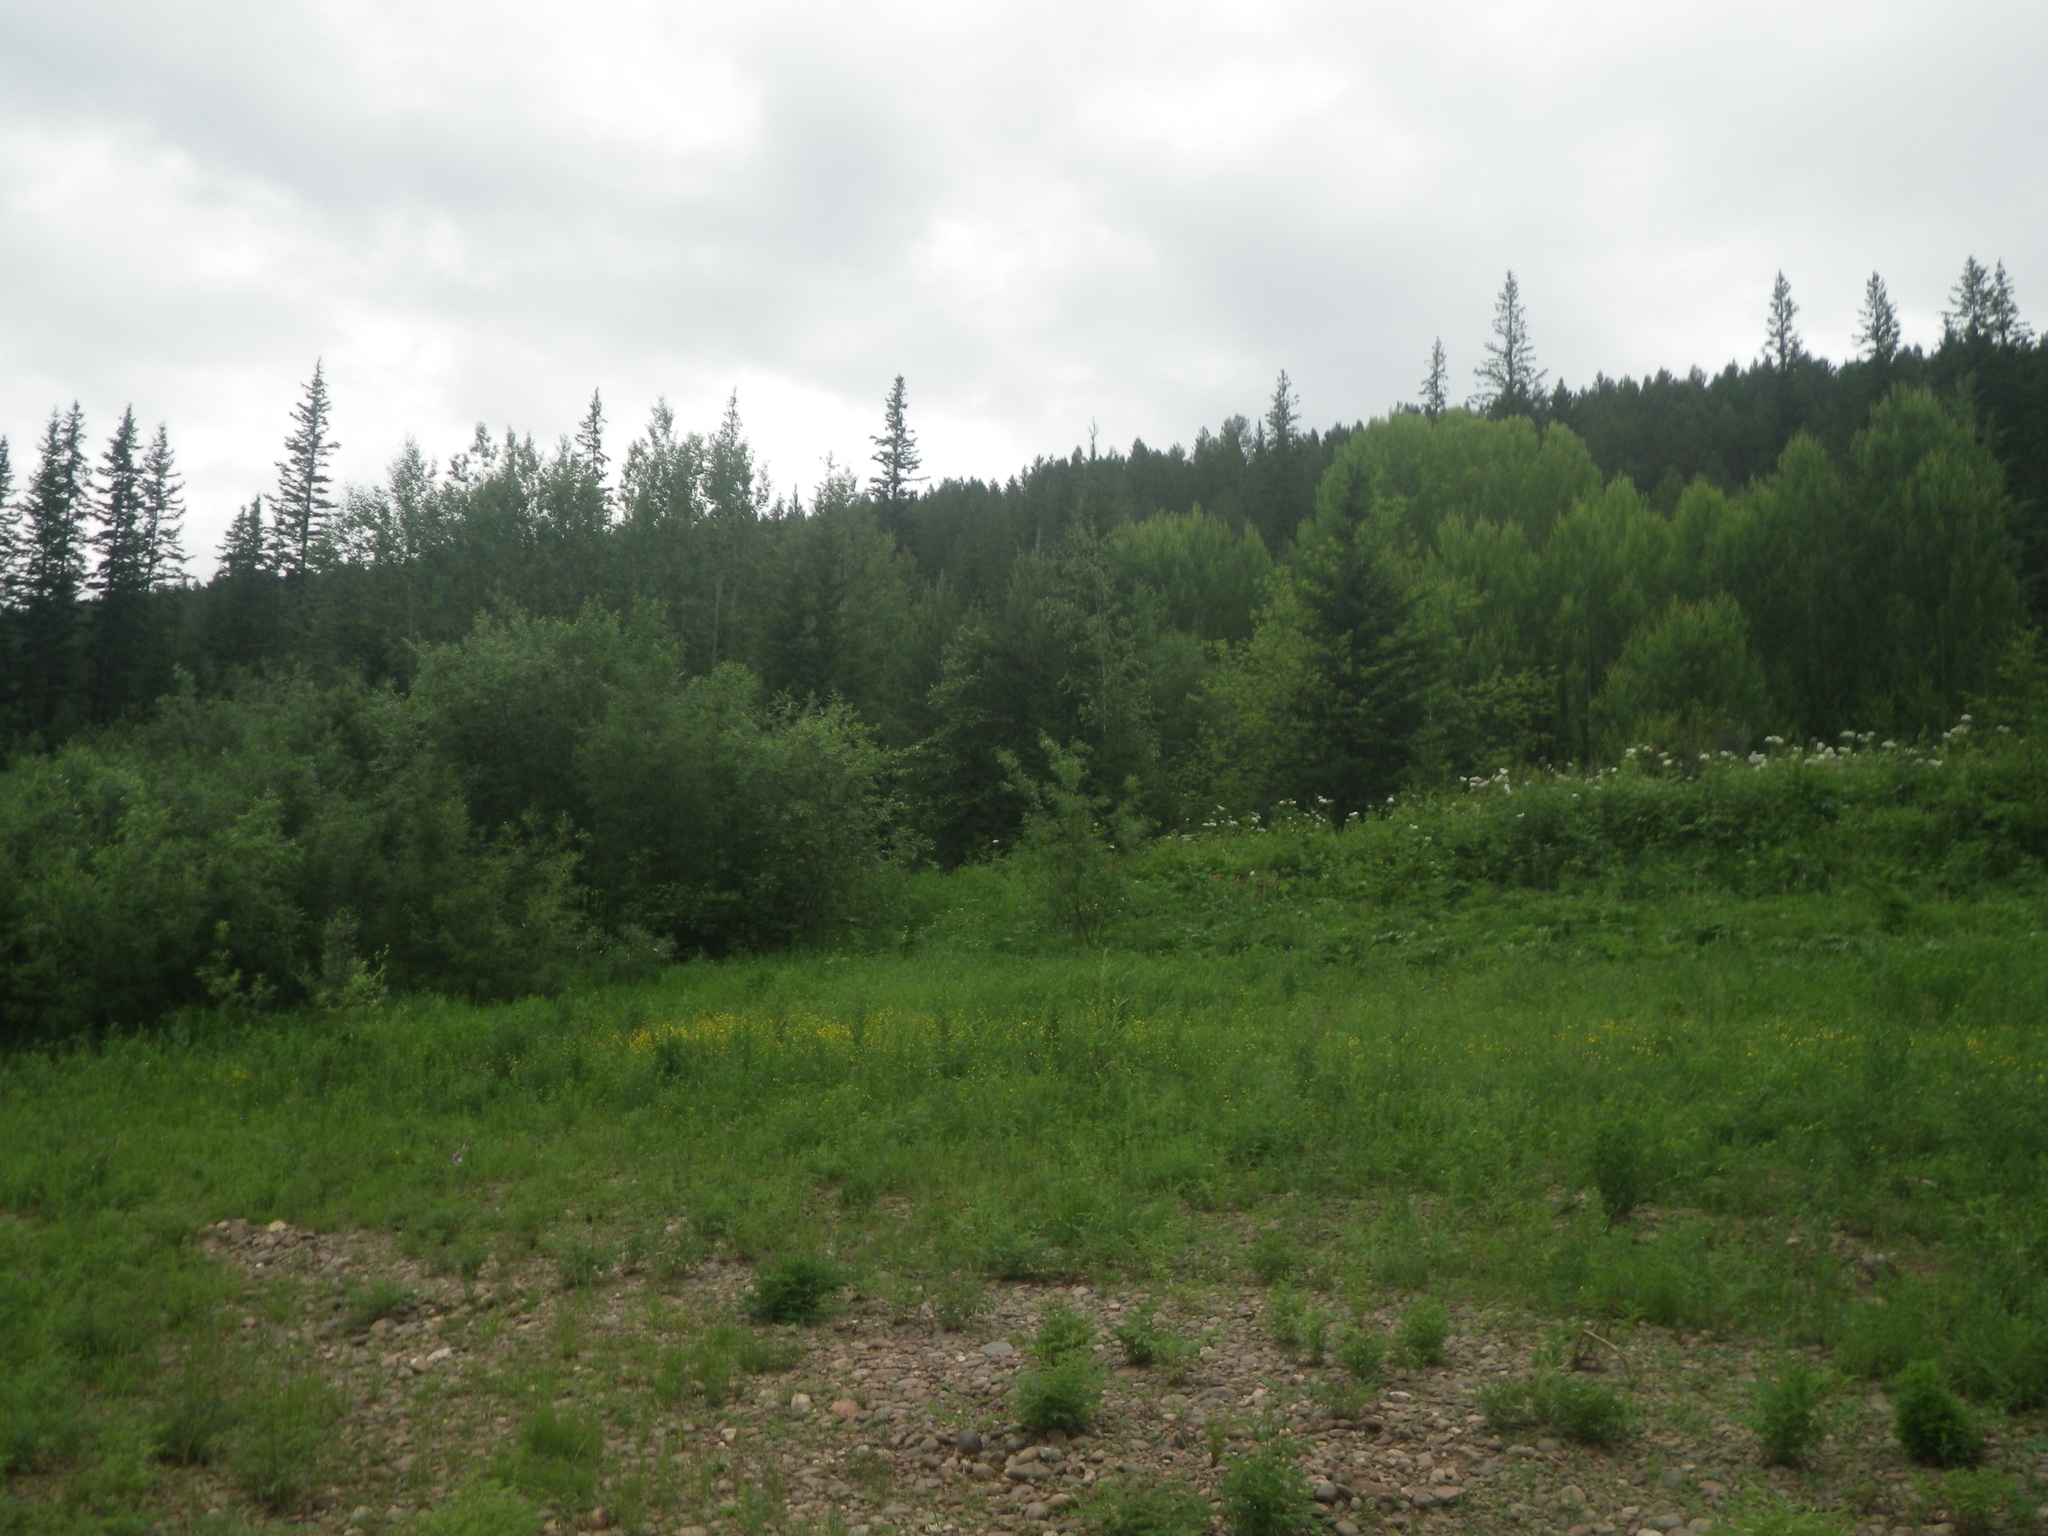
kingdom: Plantae
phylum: Tracheophyta
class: Pinopsida
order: Pinales
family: Pinaceae
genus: Picea
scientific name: Picea obovata
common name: Siberian spruce
